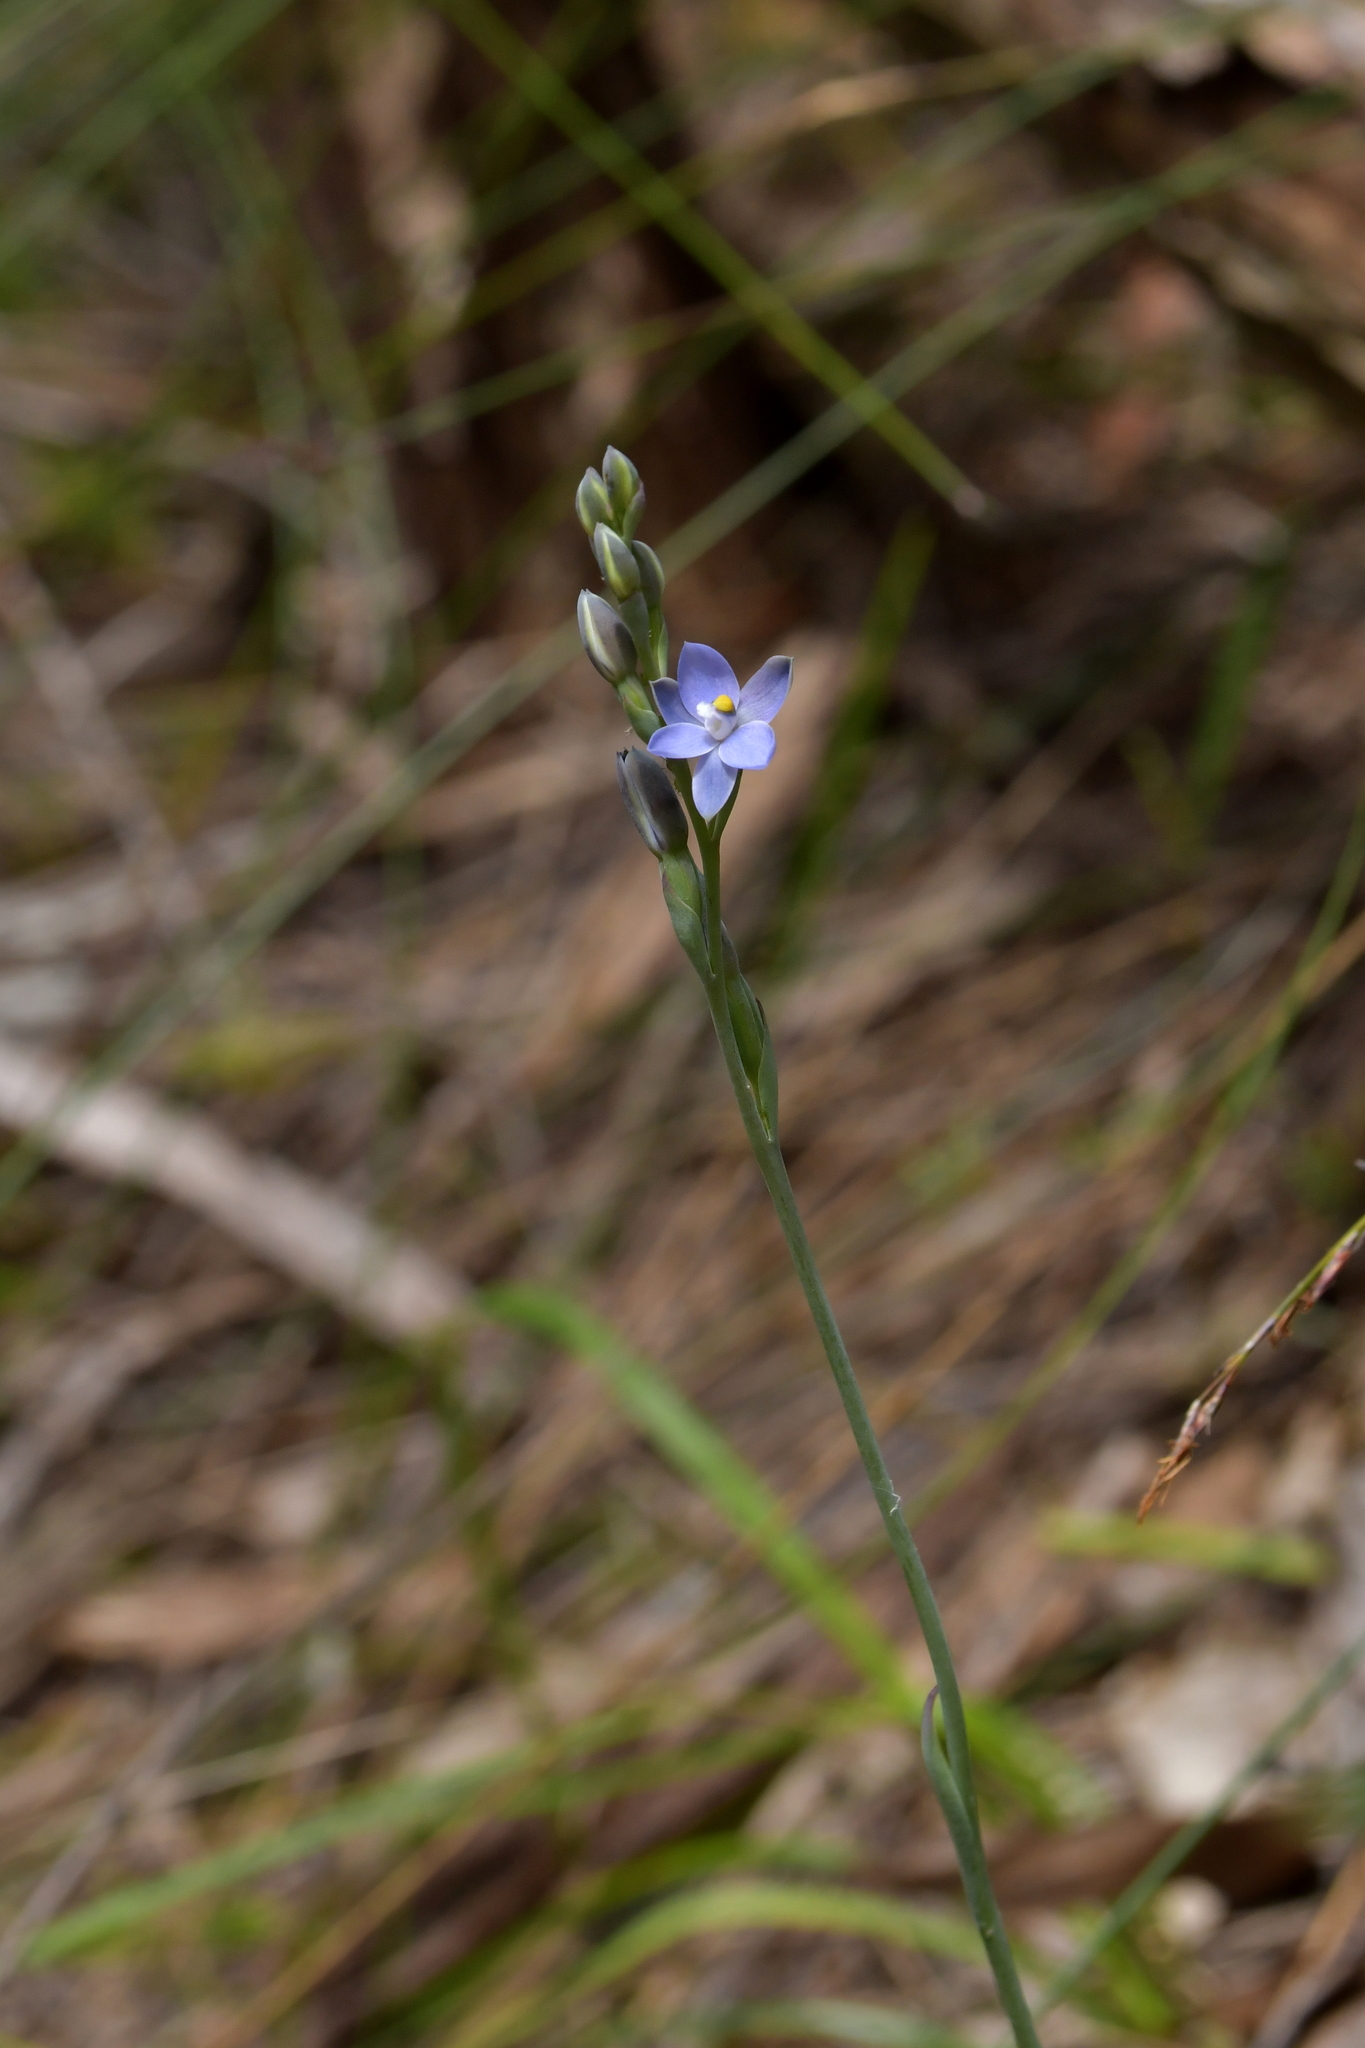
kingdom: Plantae
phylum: Tracheophyta
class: Liliopsida
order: Asparagales
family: Orchidaceae
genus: Thelymitra
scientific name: Thelymitra tholiformis
